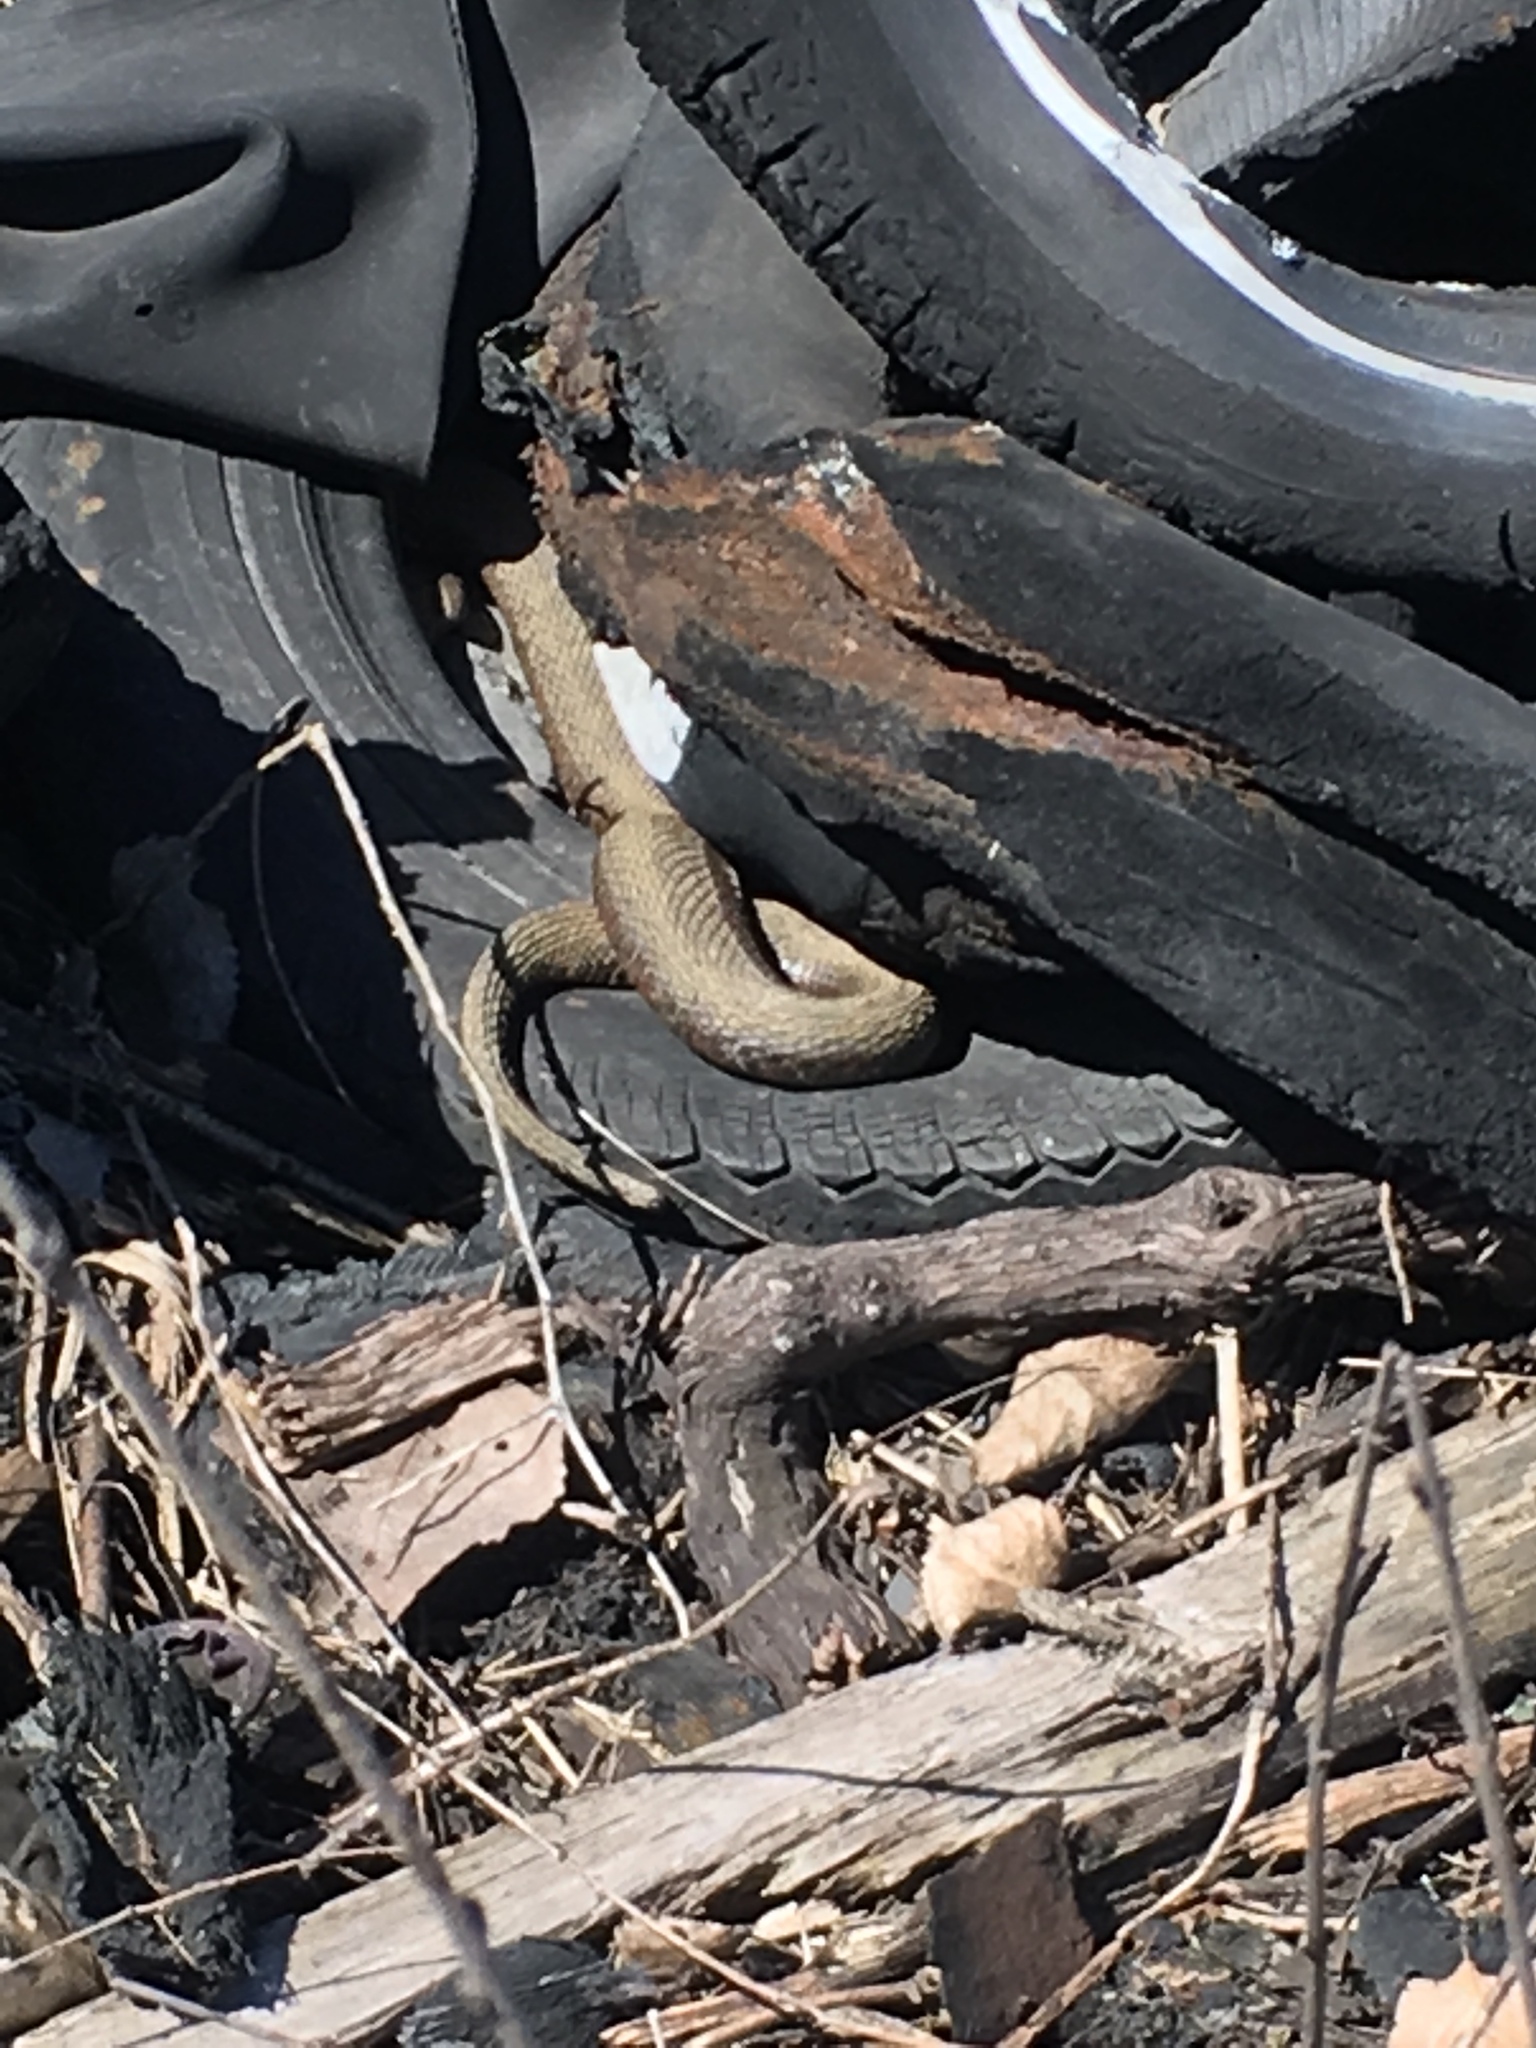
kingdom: Animalia
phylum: Chordata
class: Squamata
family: Colubridae
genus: Nerodia
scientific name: Nerodia sipedon
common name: Northern water snake
